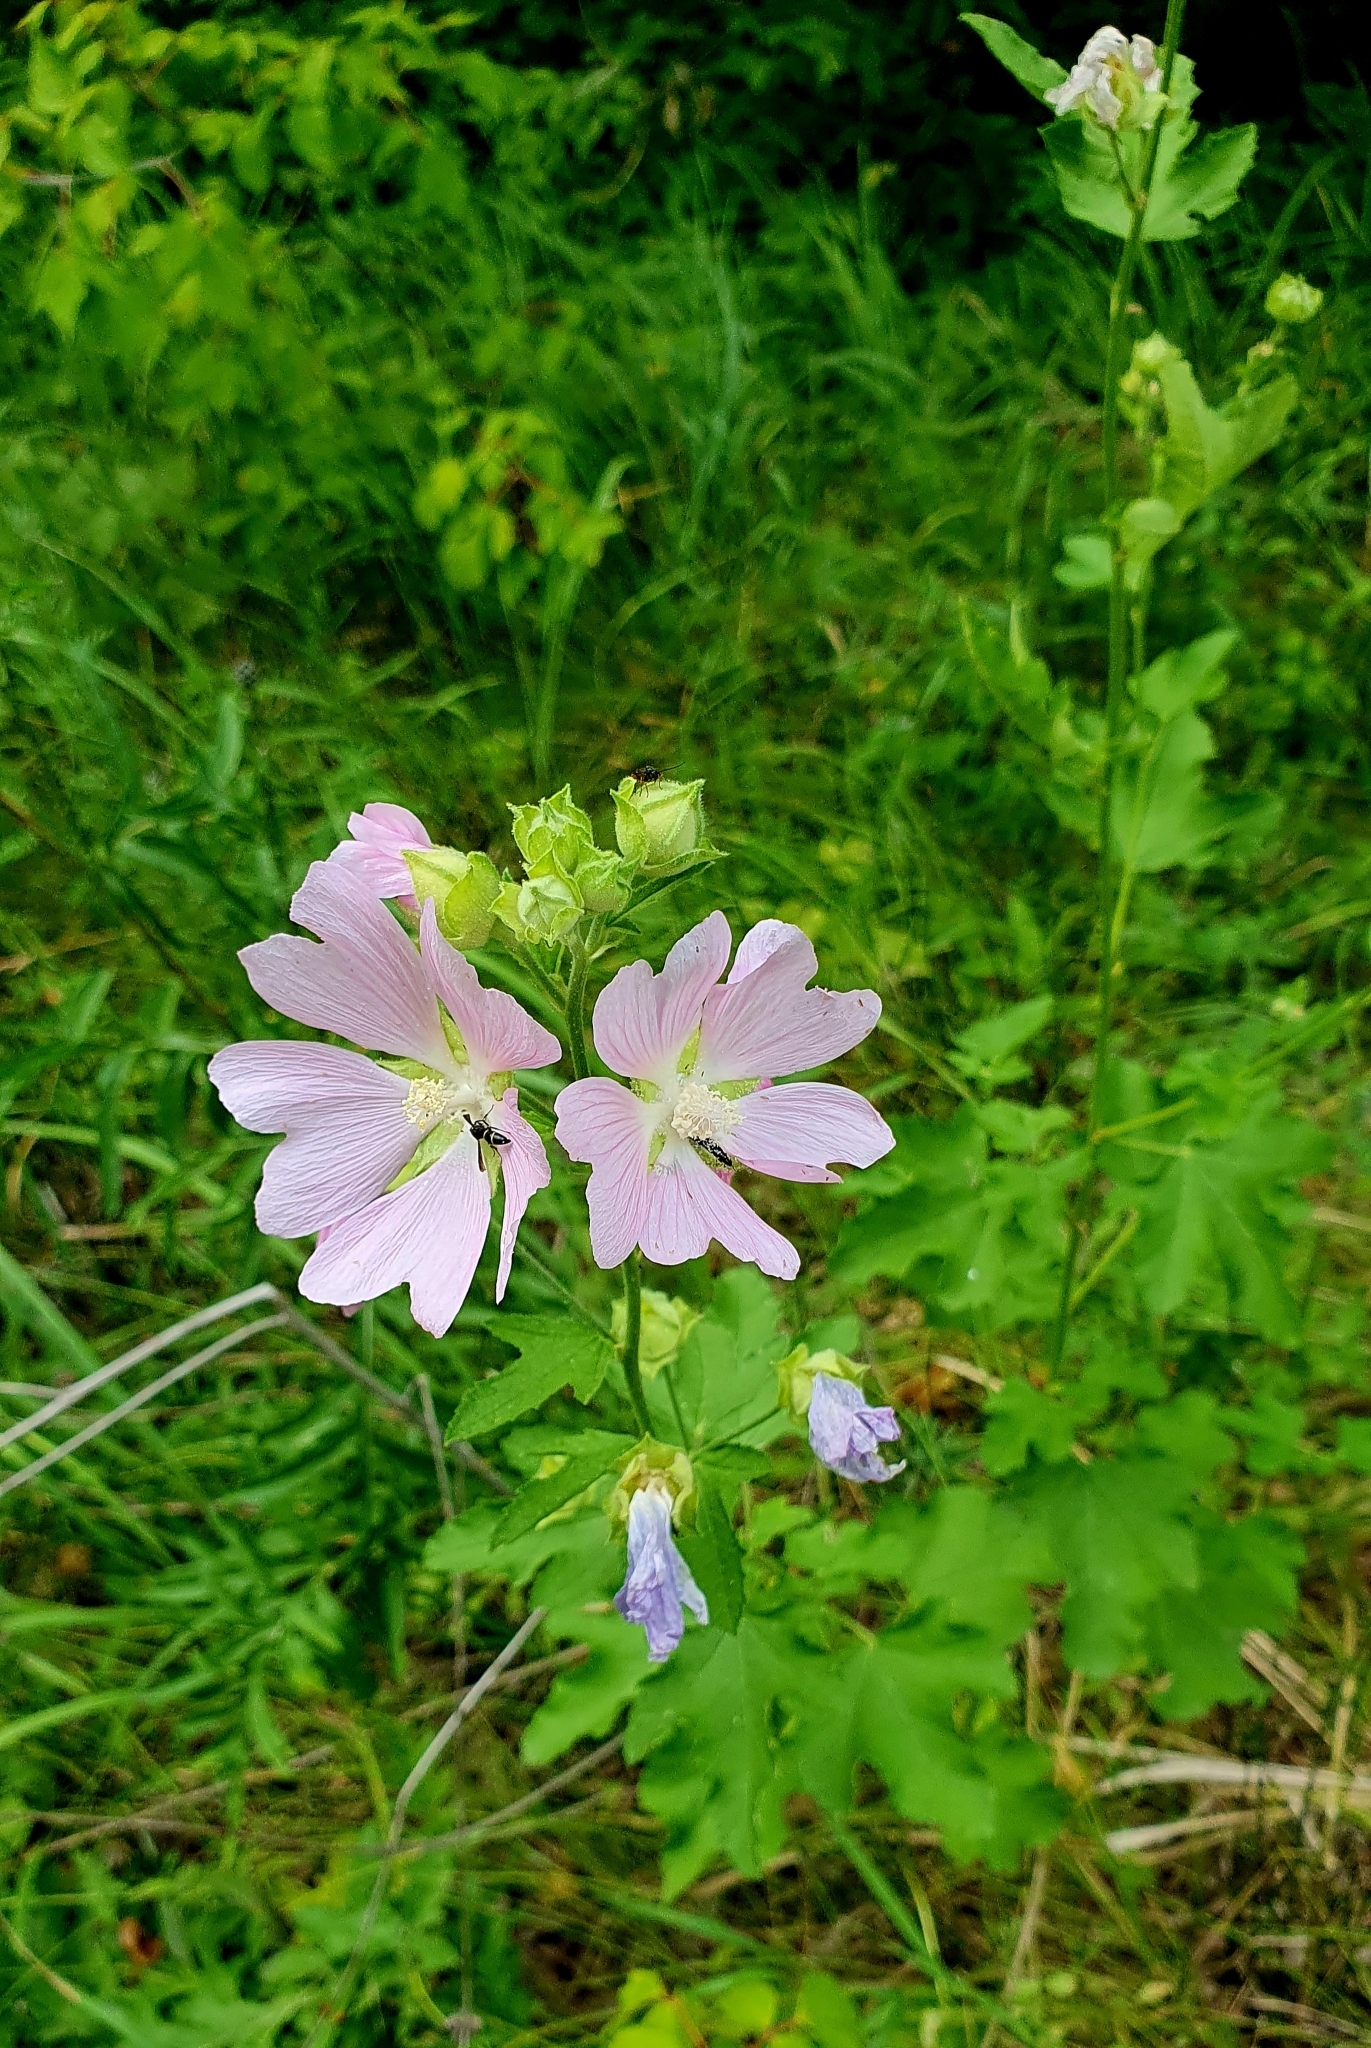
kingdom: Plantae
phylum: Tracheophyta
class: Magnoliopsida
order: Malvales
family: Malvaceae
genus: Malva
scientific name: Malva thuringiaca
